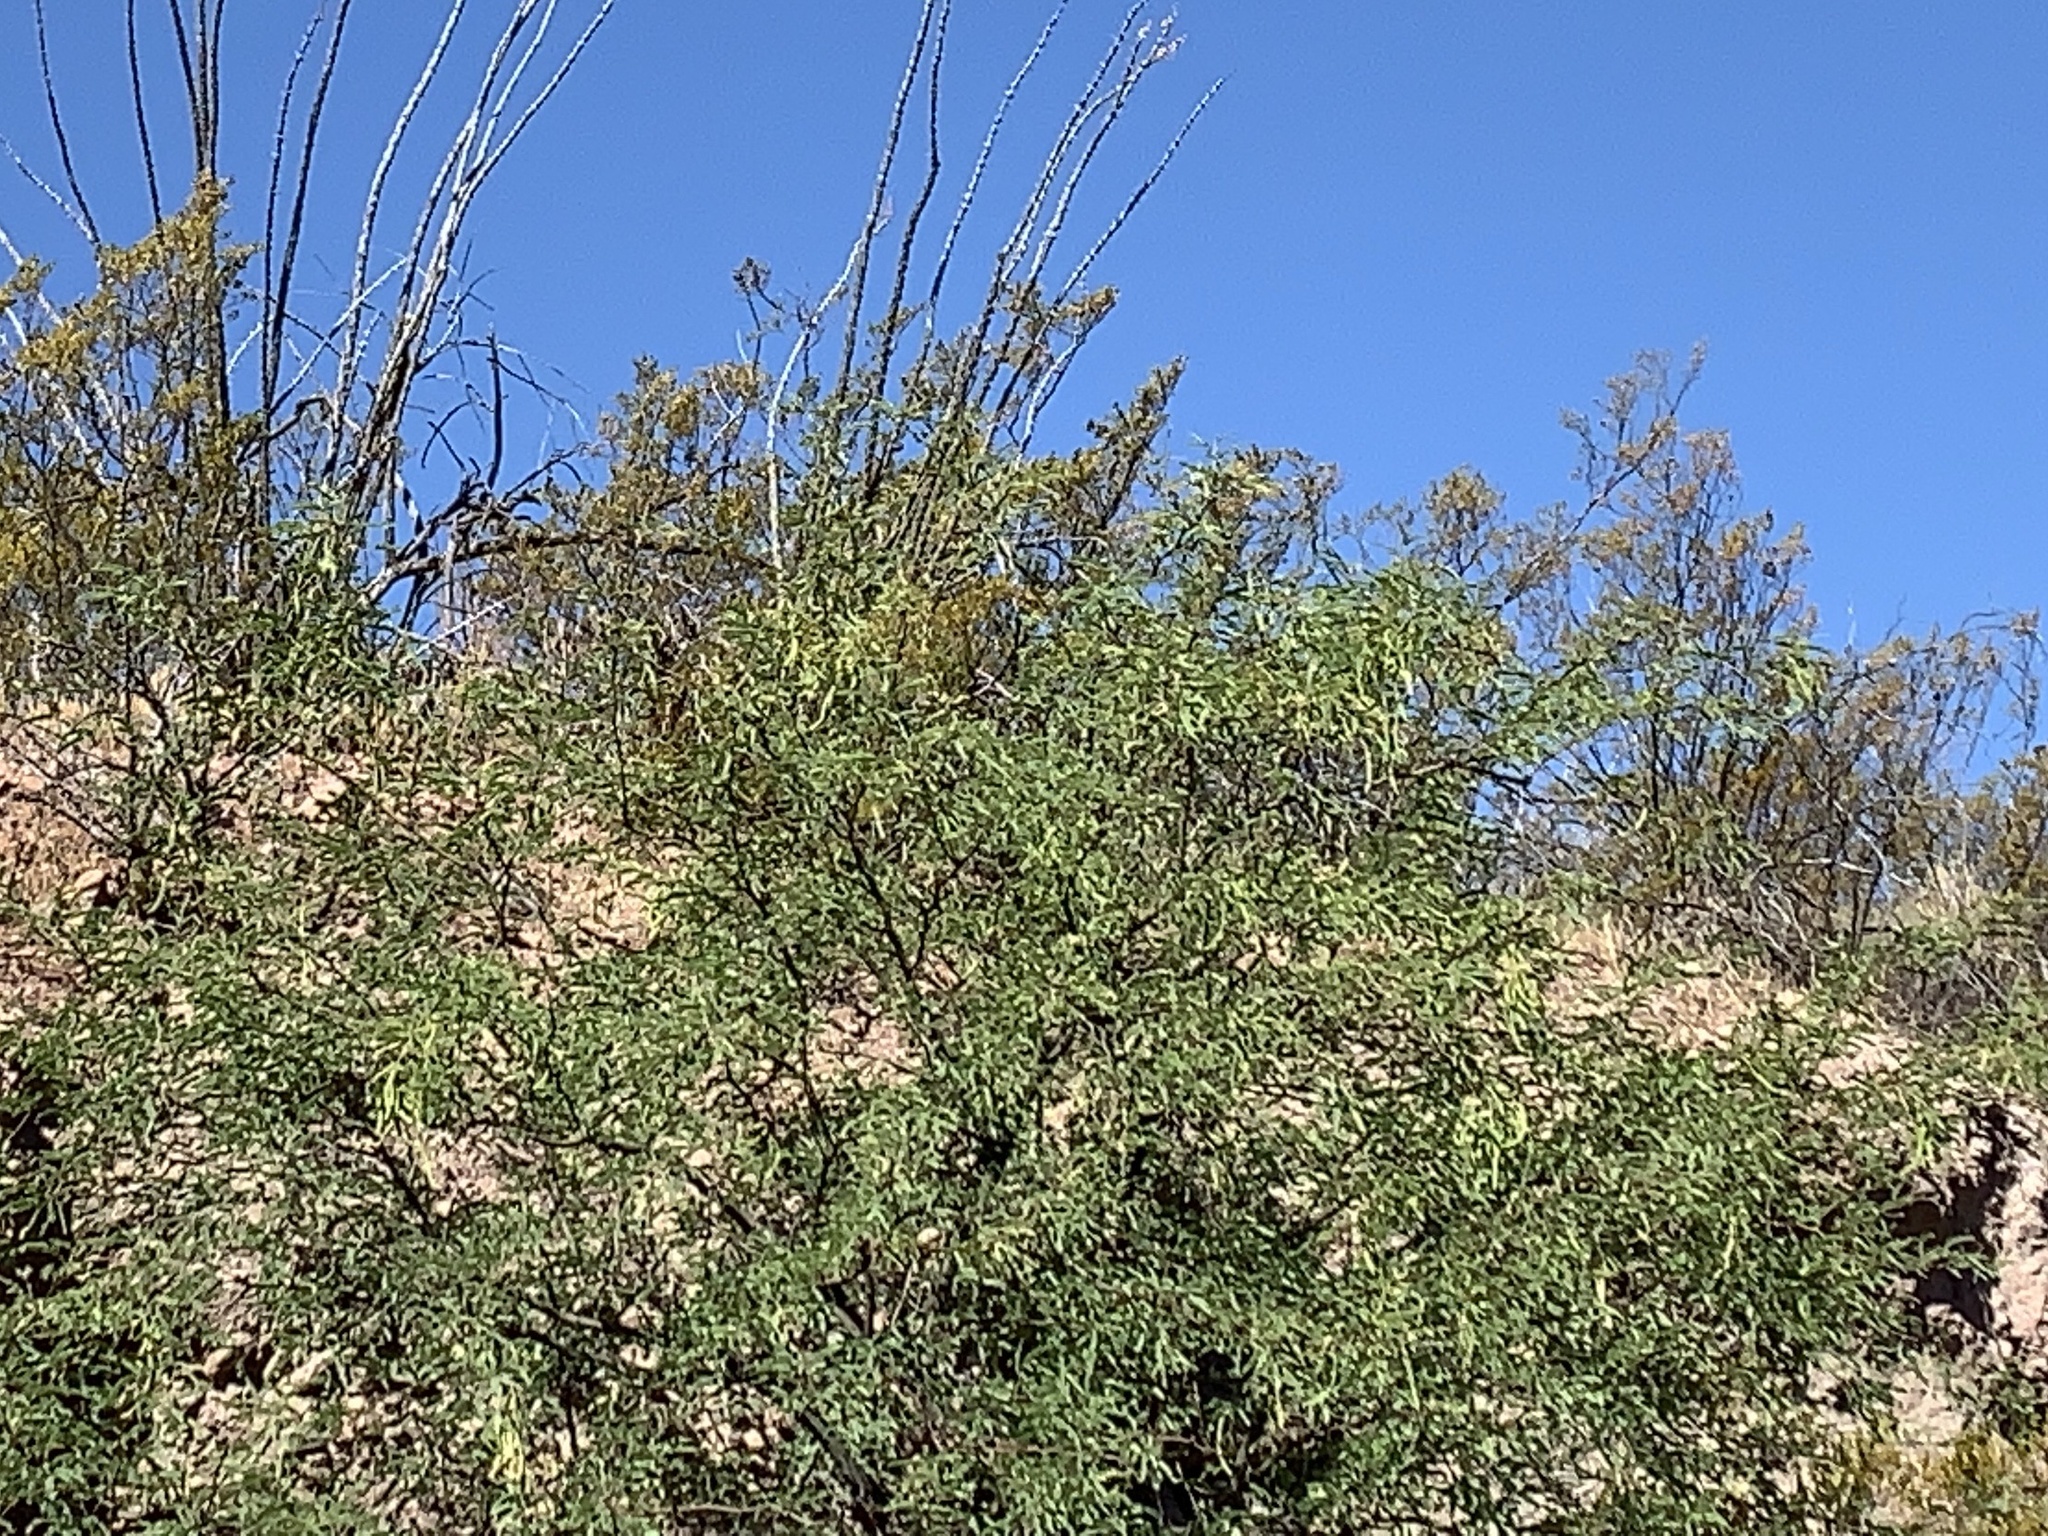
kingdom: Plantae
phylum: Tracheophyta
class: Magnoliopsida
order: Fabales
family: Fabaceae
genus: Prosopis
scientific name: Prosopis velutina
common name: Velvet mesquite
